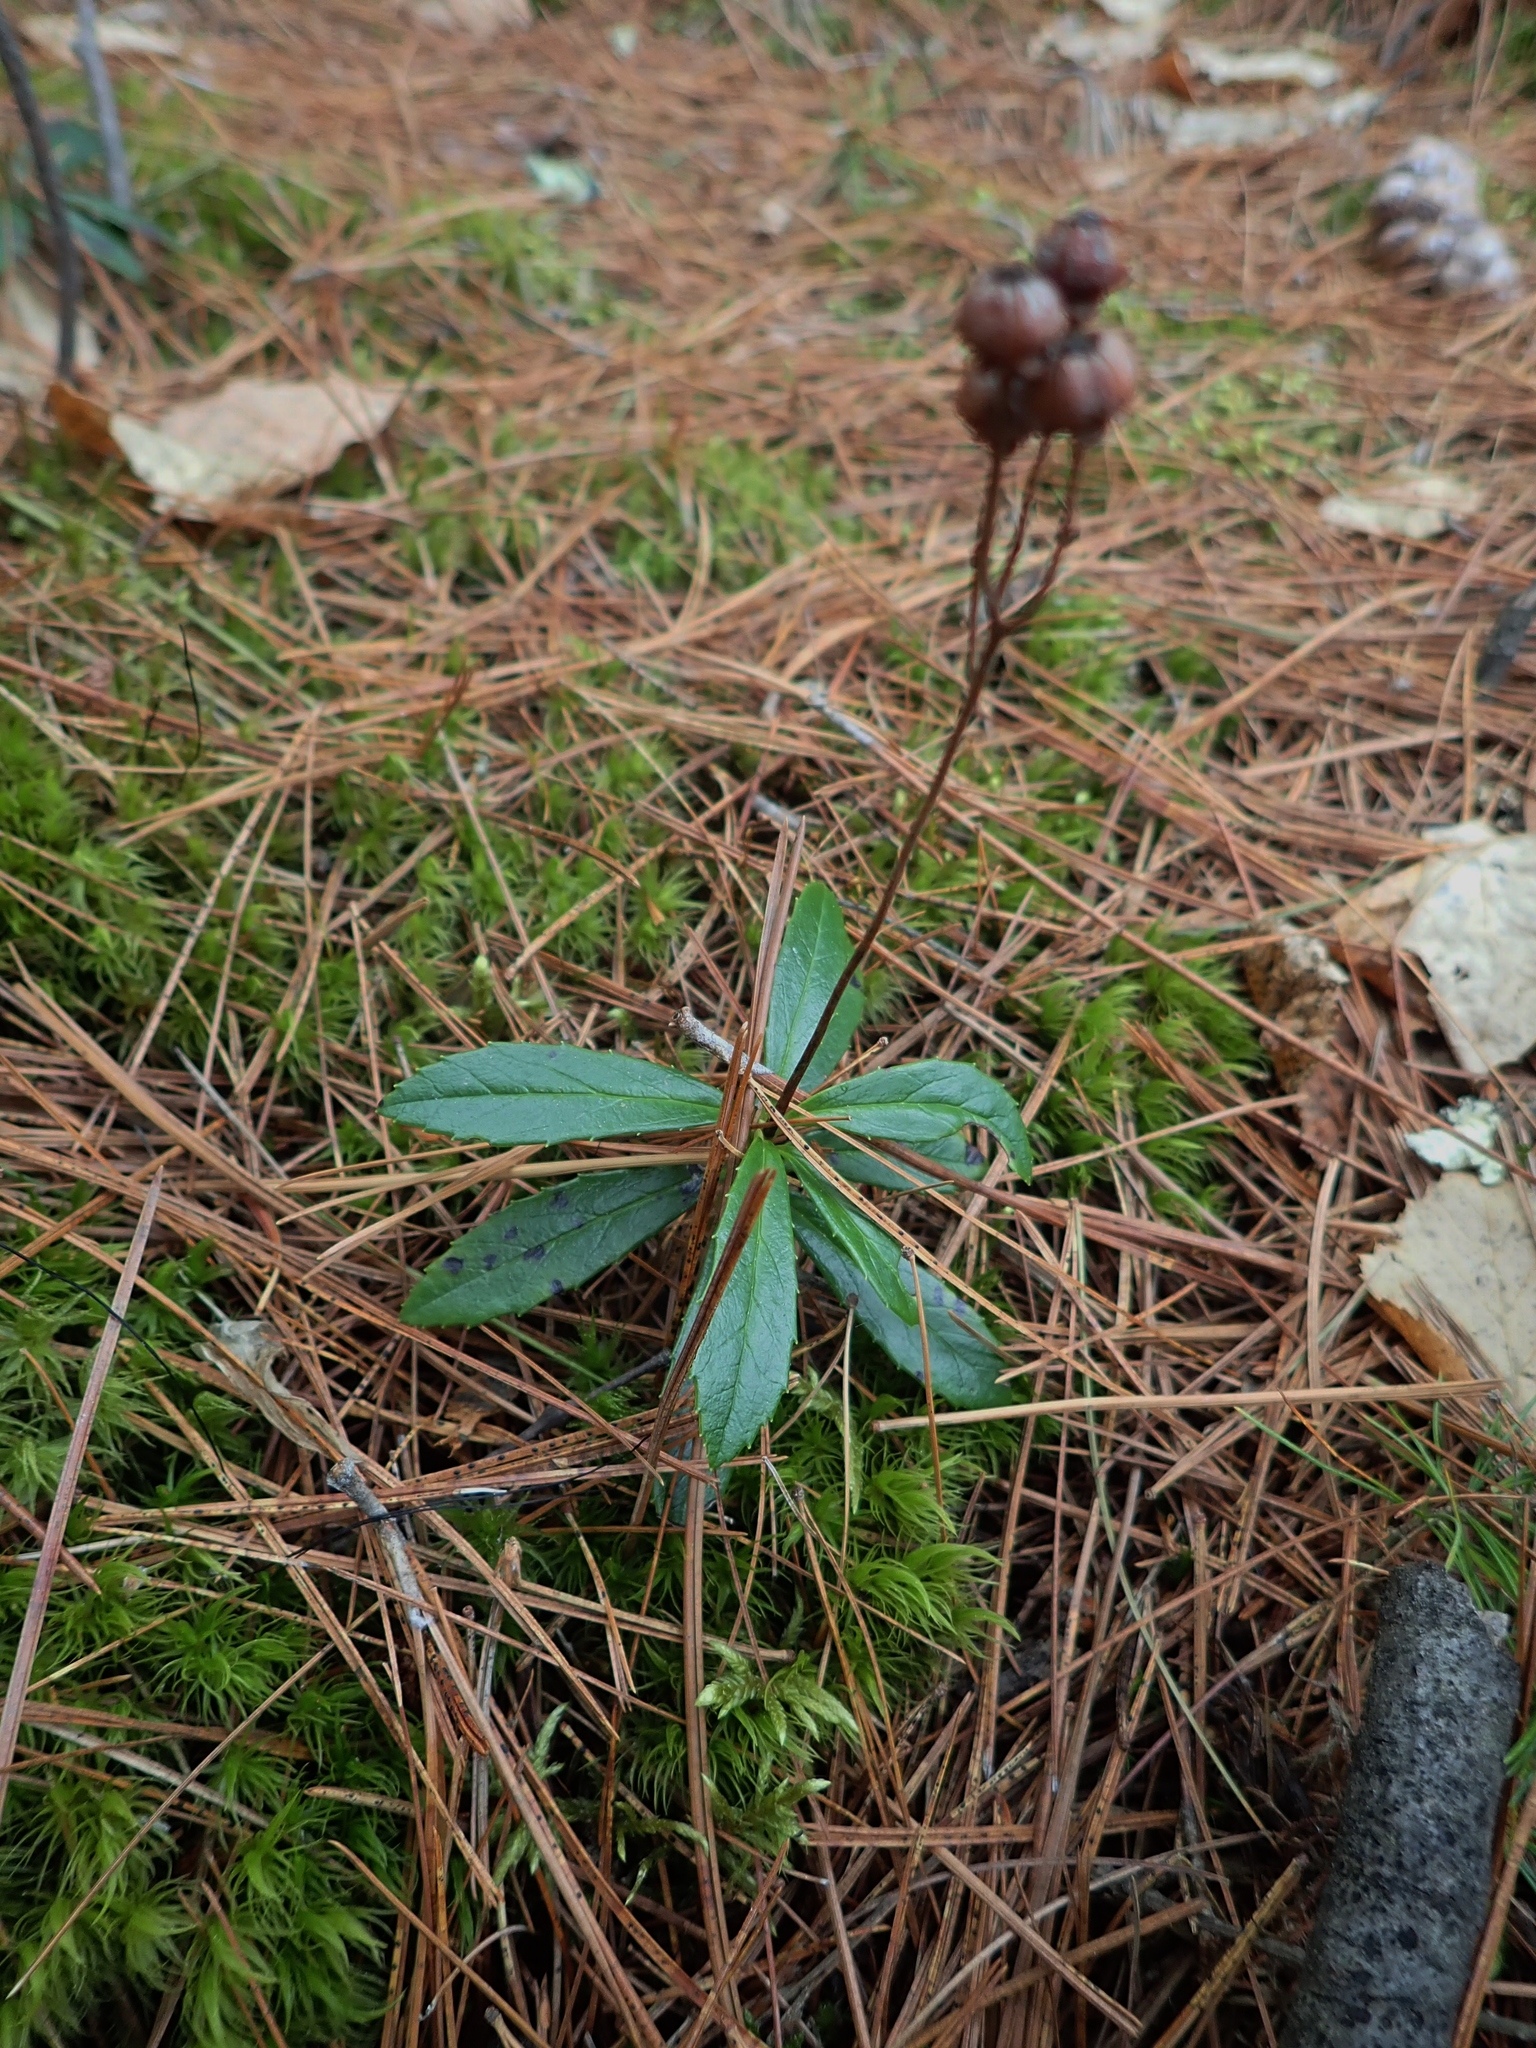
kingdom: Plantae
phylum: Tracheophyta
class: Magnoliopsida
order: Ericales
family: Ericaceae
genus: Chimaphila
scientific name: Chimaphila umbellata
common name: Pipsissewa
